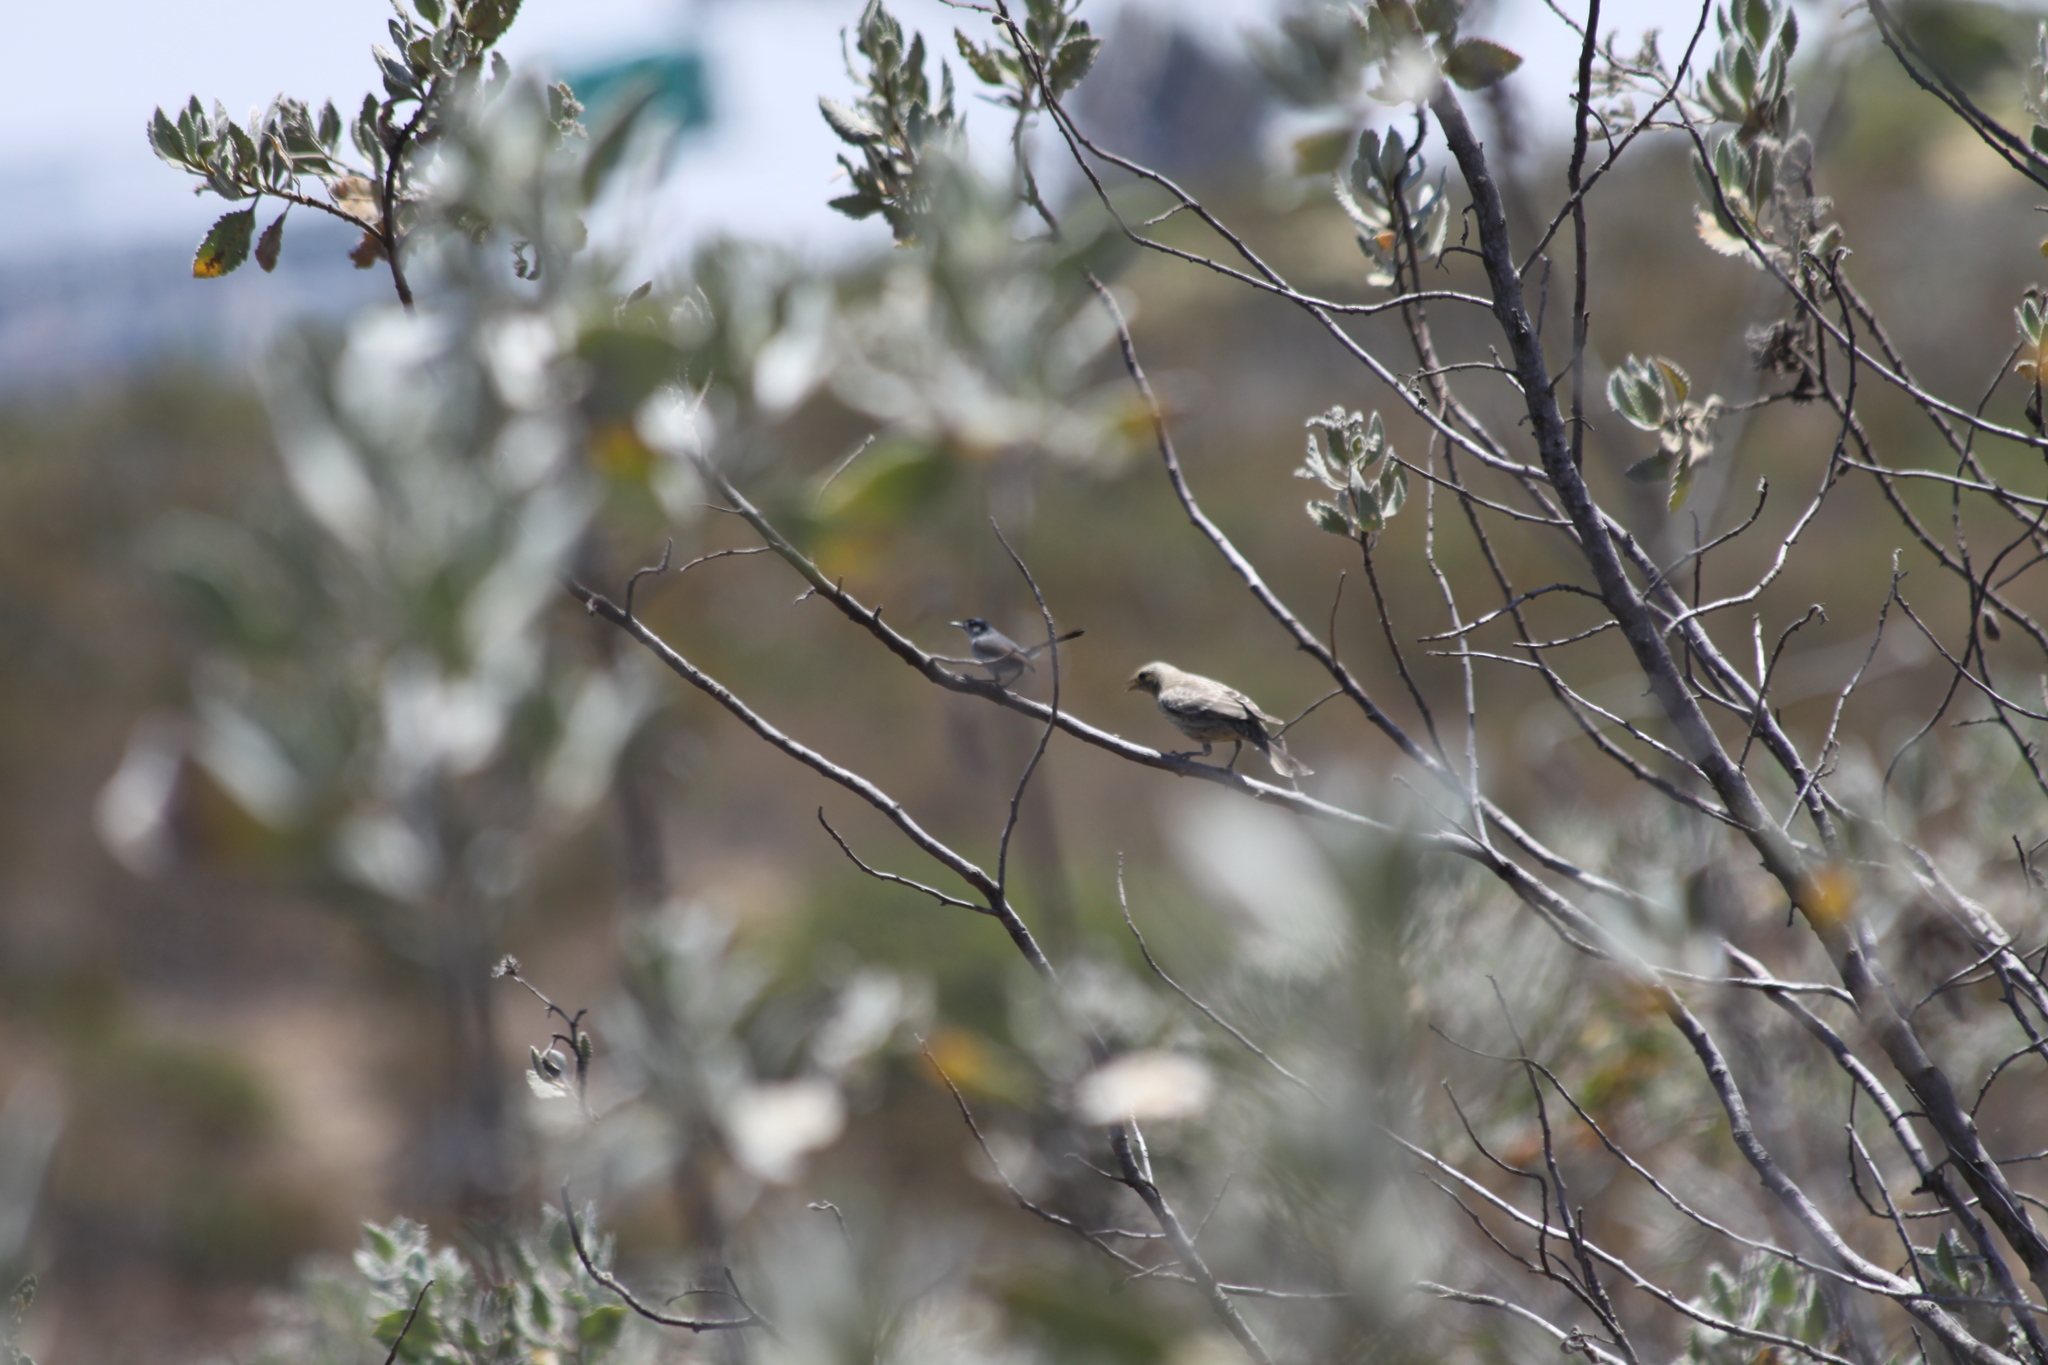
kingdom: Animalia
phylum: Chordata
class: Aves
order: Passeriformes
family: Polioptilidae
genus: Polioptila
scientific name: Polioptila californica
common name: California gnatcatcher
